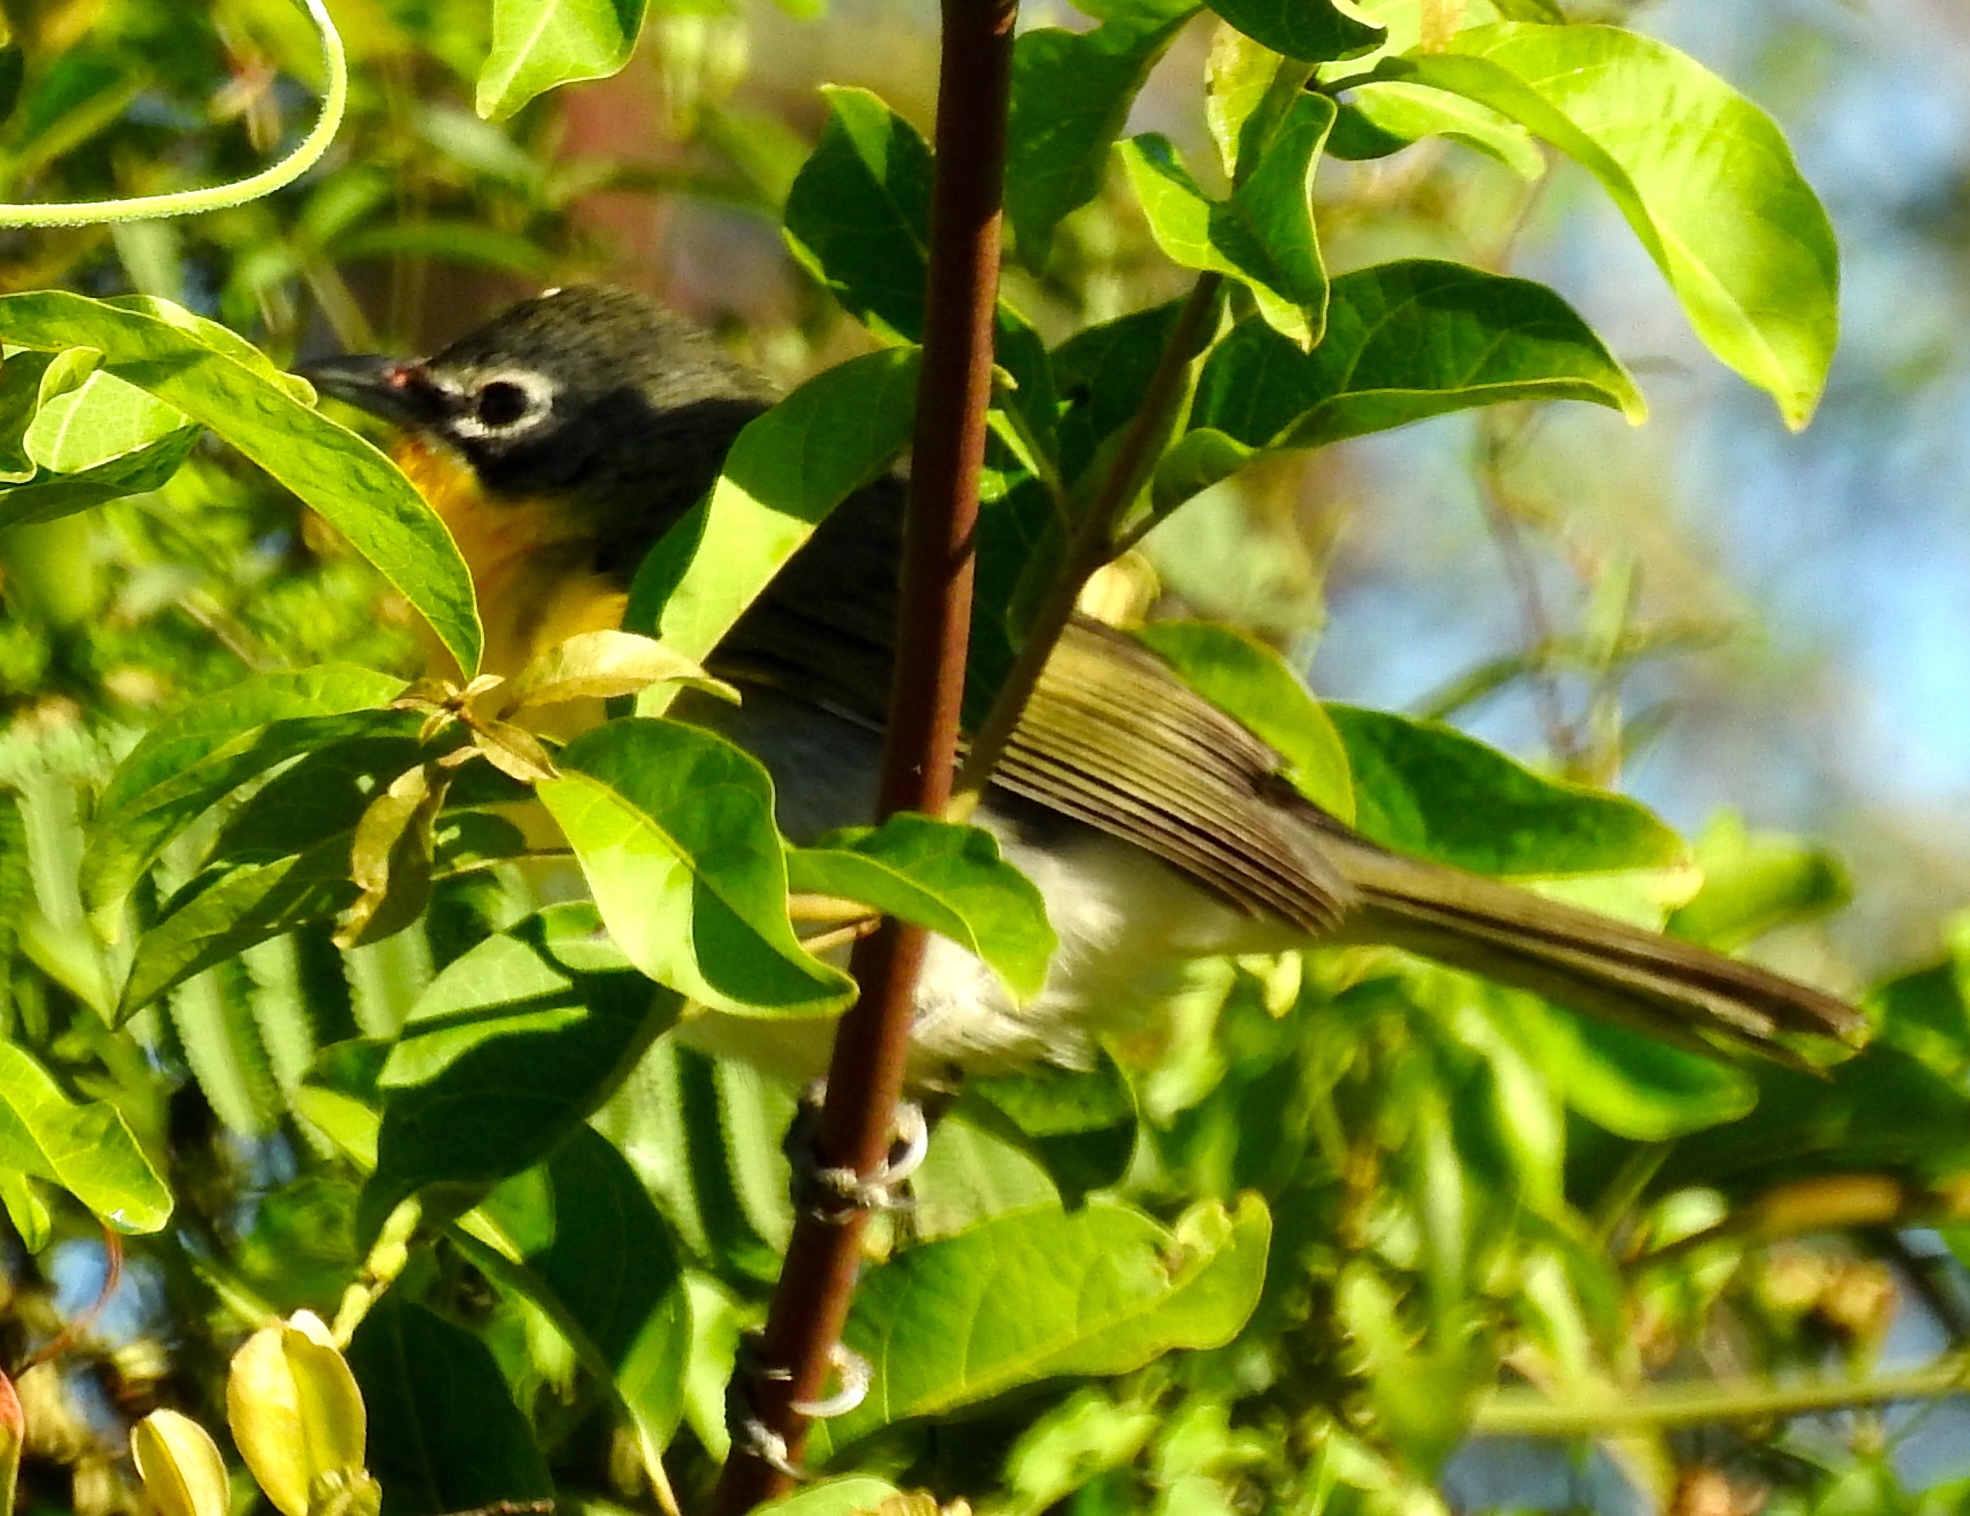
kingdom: Animalia
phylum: Chordata
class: Aves
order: Passeriformes
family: Parulidae
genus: Icteria
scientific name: Icteria virens
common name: Yellow-breasted chat
